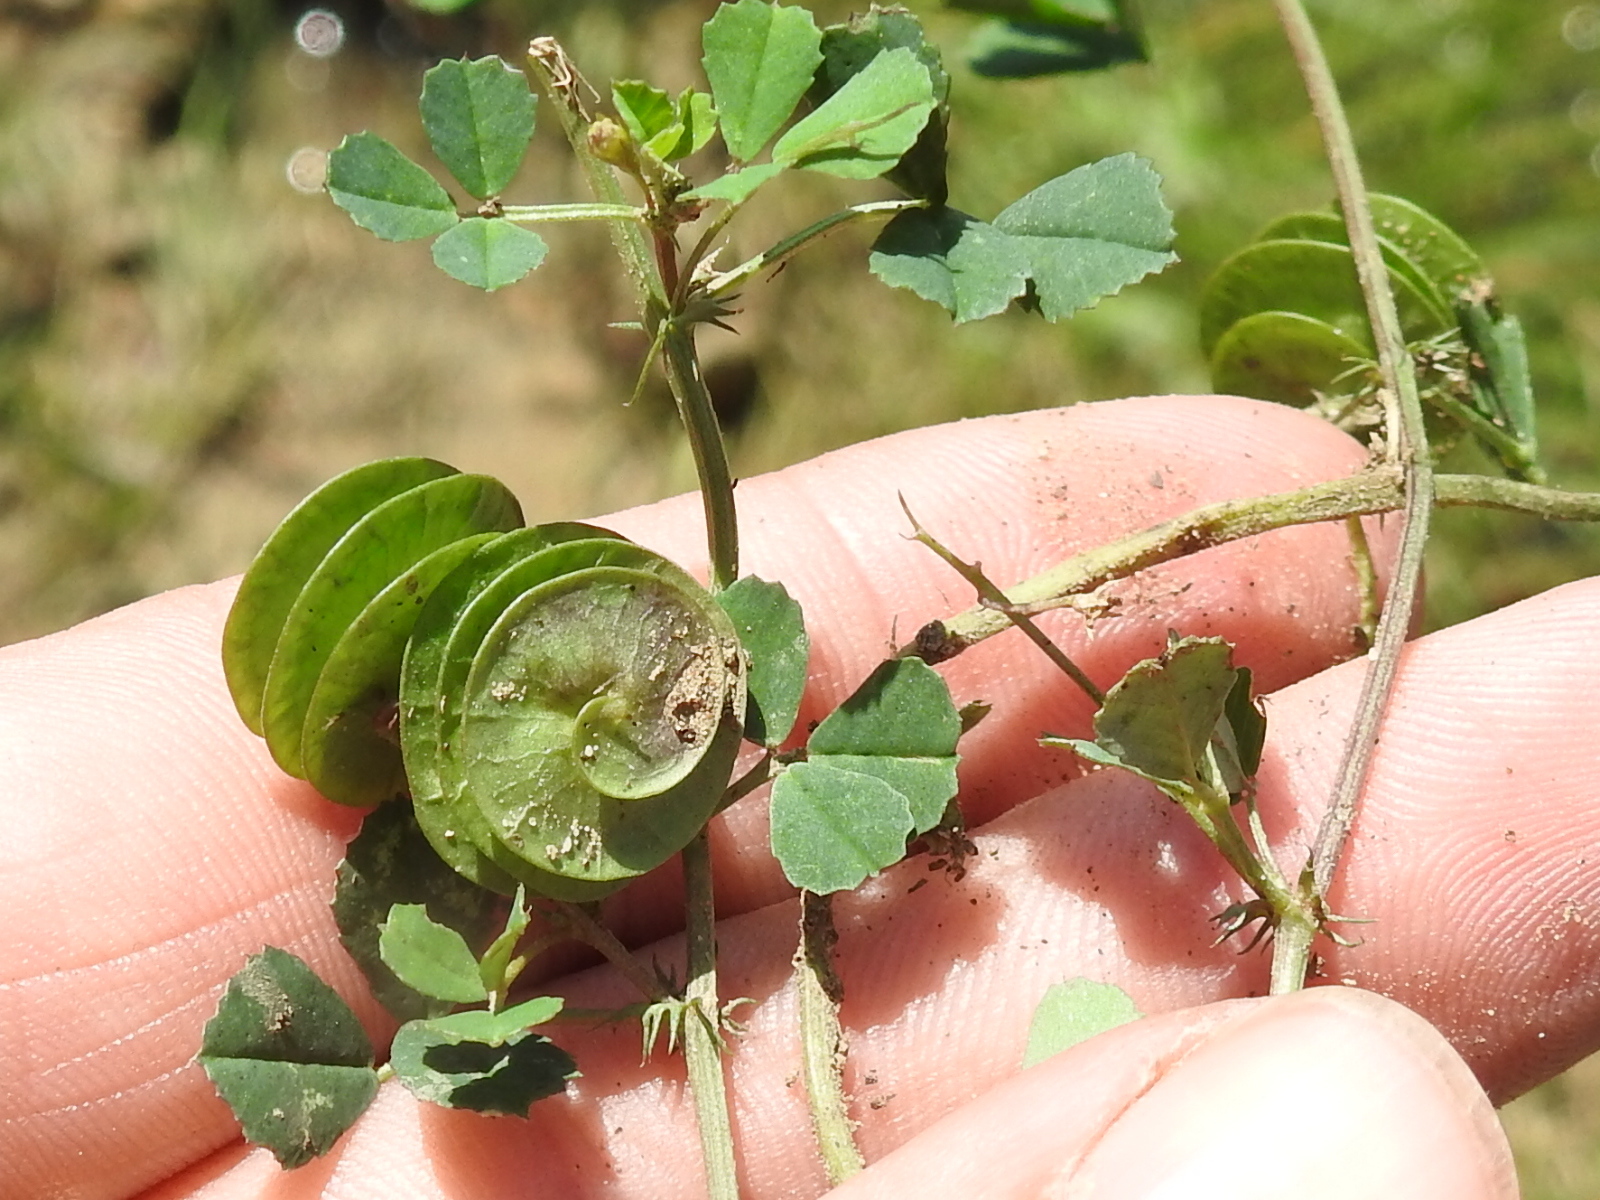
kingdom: Plantae
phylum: Tracheophyta
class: Magnoliopsida
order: Fabales
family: Fabaceae
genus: Medicago
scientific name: Medicago orbicularis
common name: Button medick
